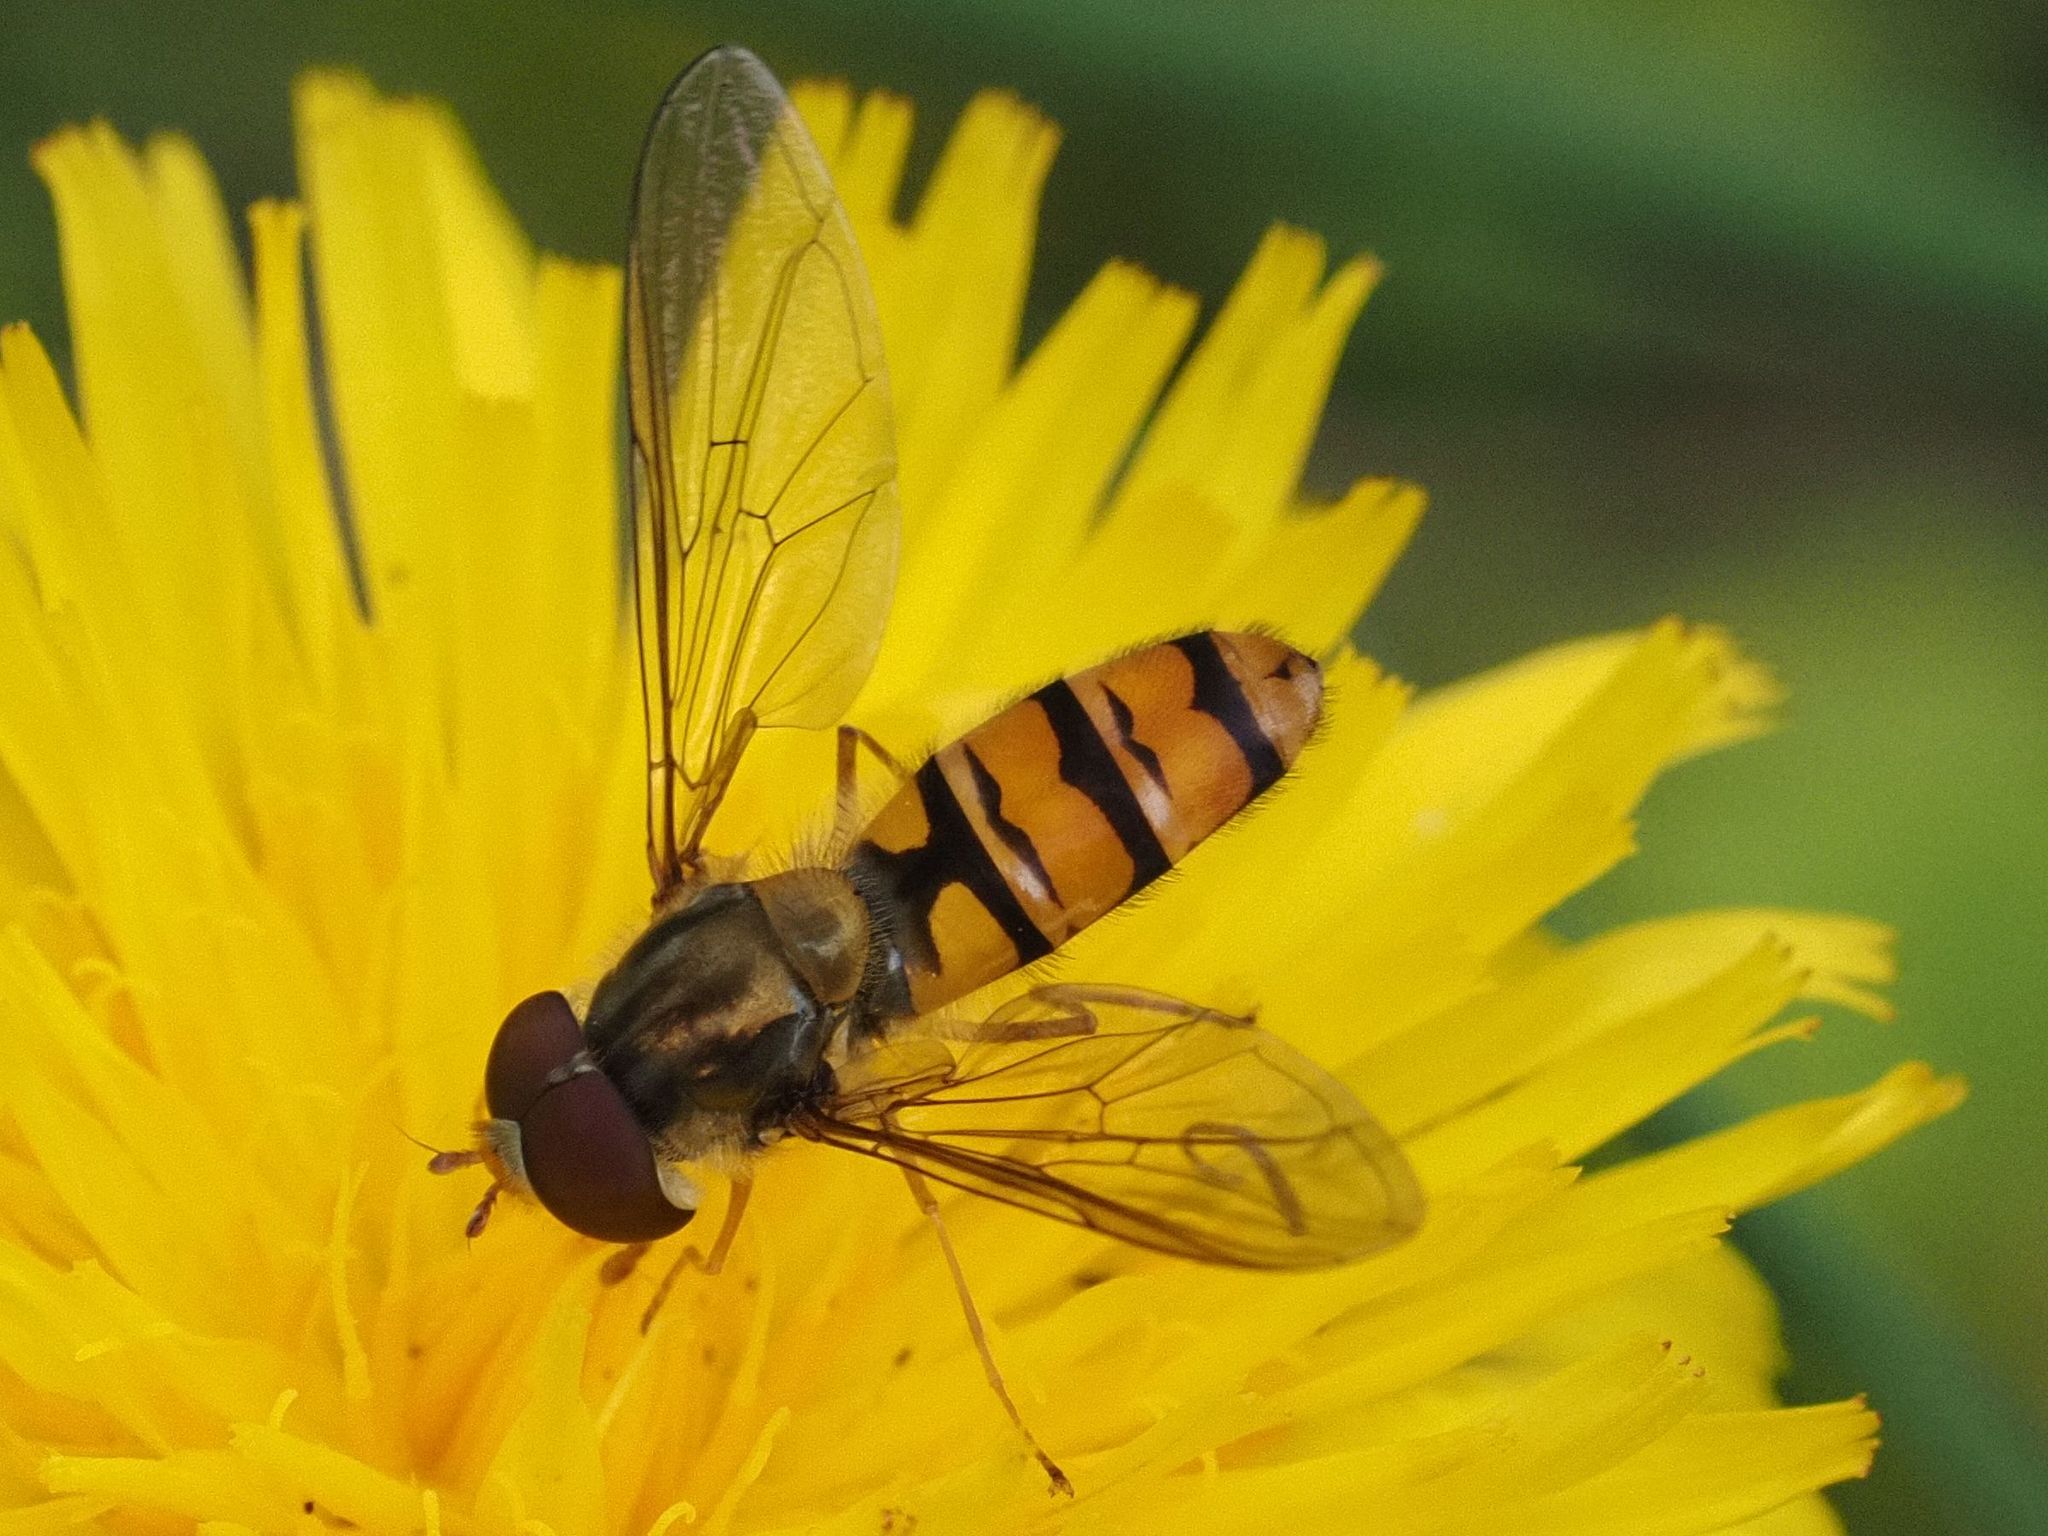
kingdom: Animalia
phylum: Arthropoda
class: Insecta
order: Diptera
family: Syrphidae
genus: Episyrphus
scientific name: Episyrphus balteatus
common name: Marmalade hoverfly
